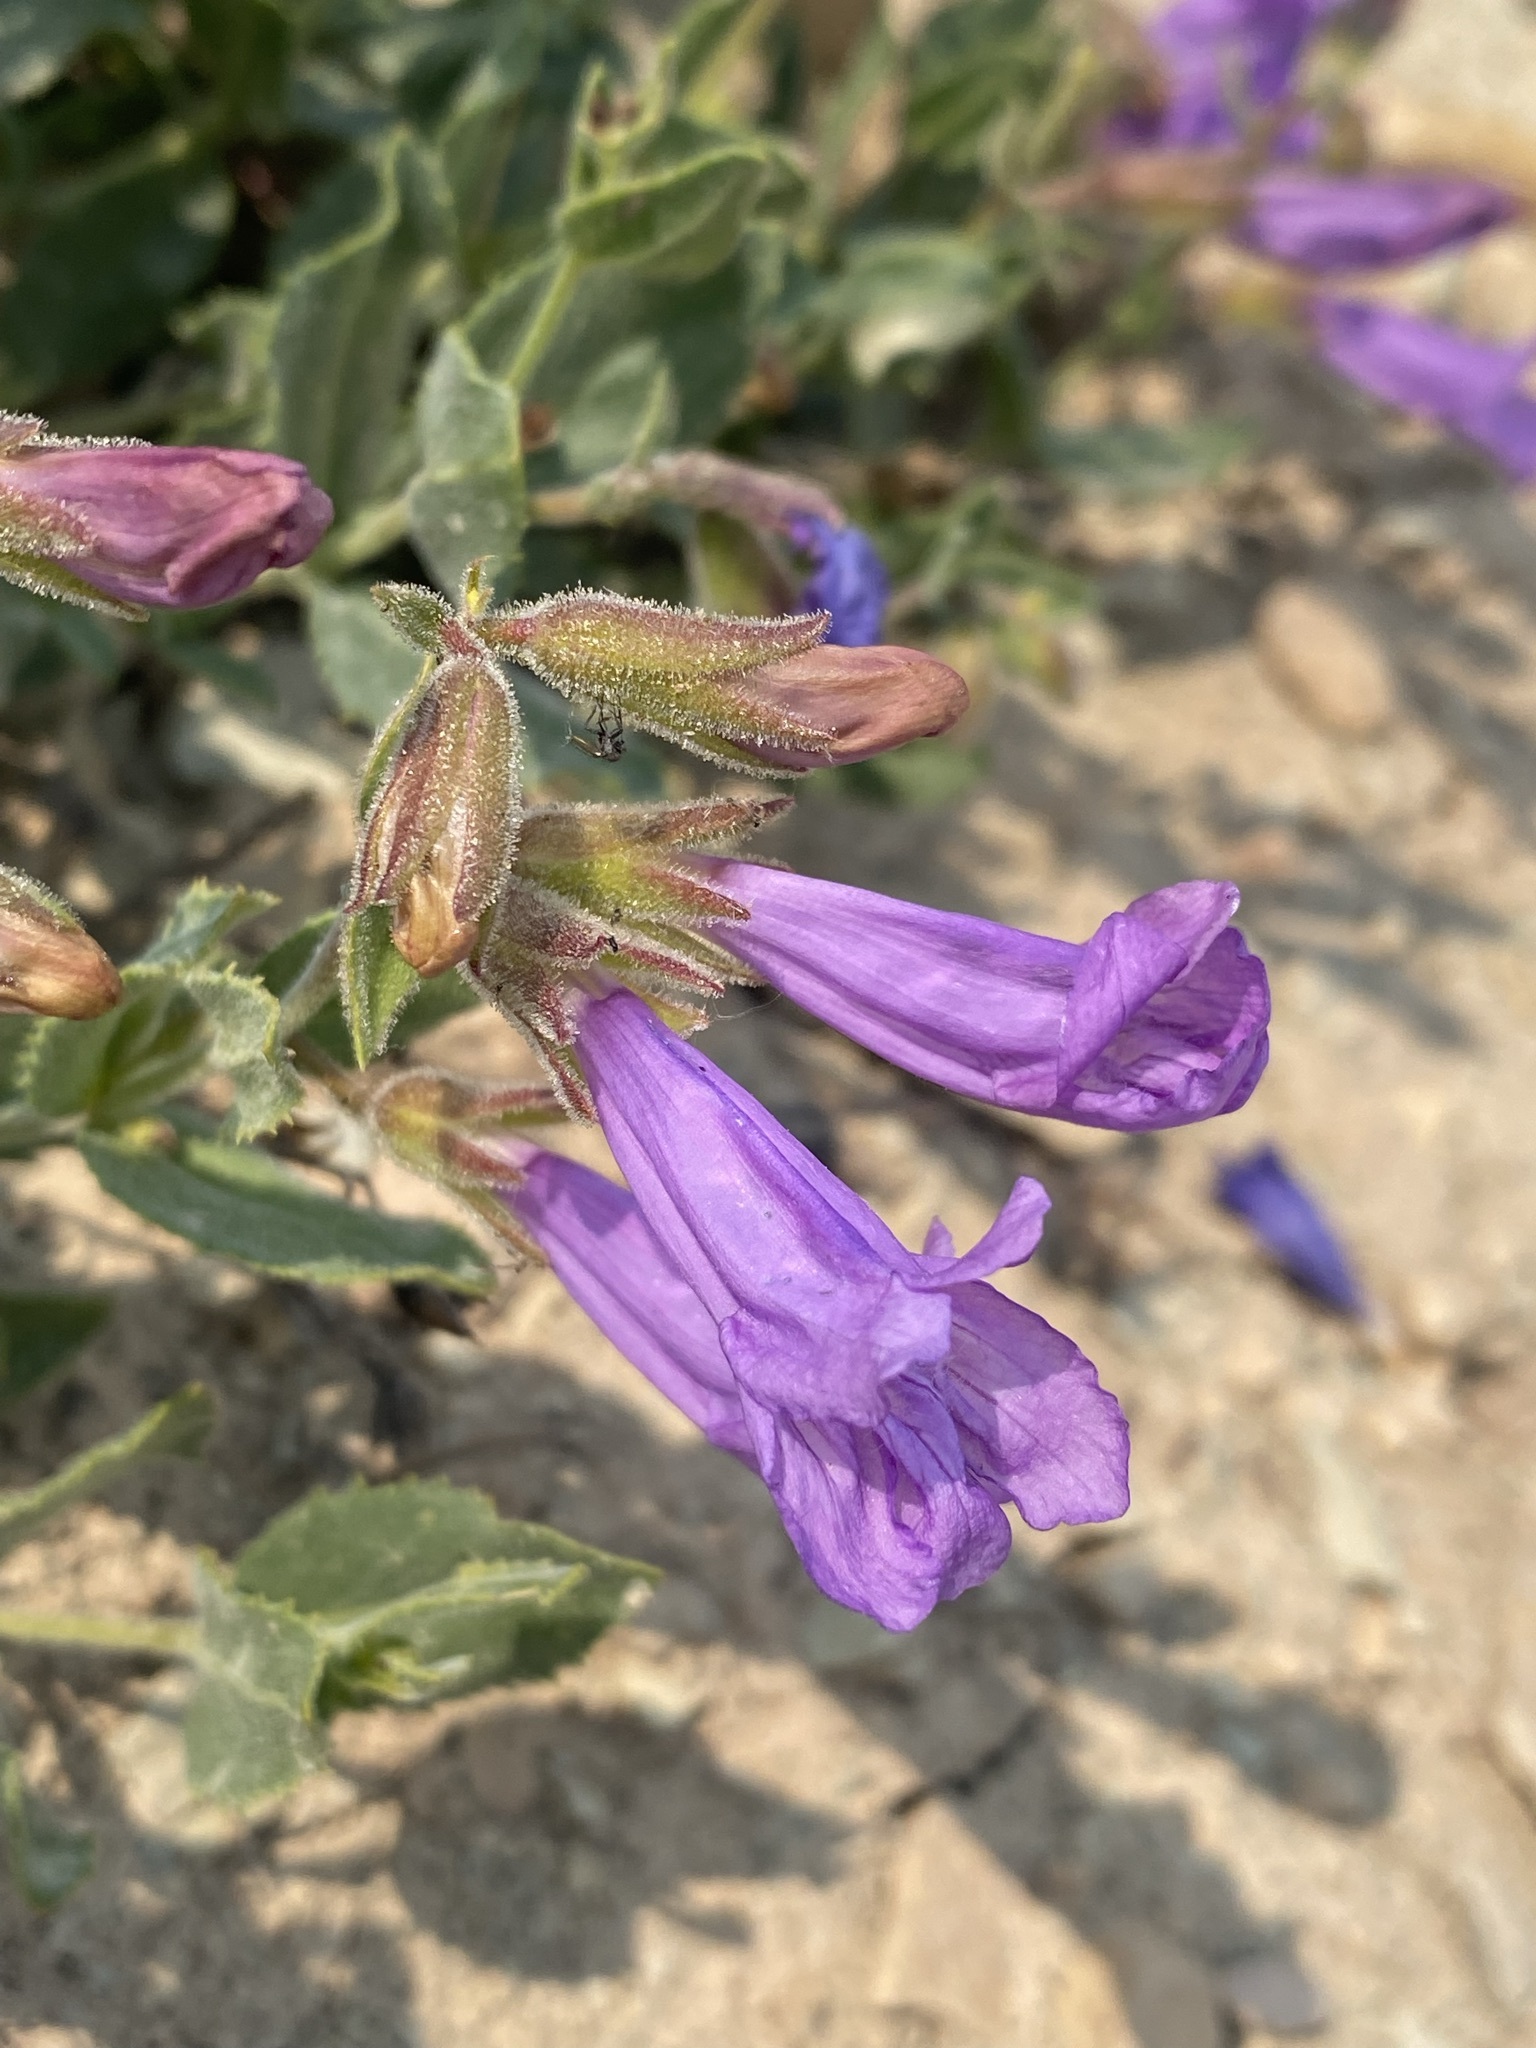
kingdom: Plantae
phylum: Tracheophyta
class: Magnoliopsida
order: Lamiales
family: Plantaginaceae
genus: Penstemon
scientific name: Penstemon montanus
